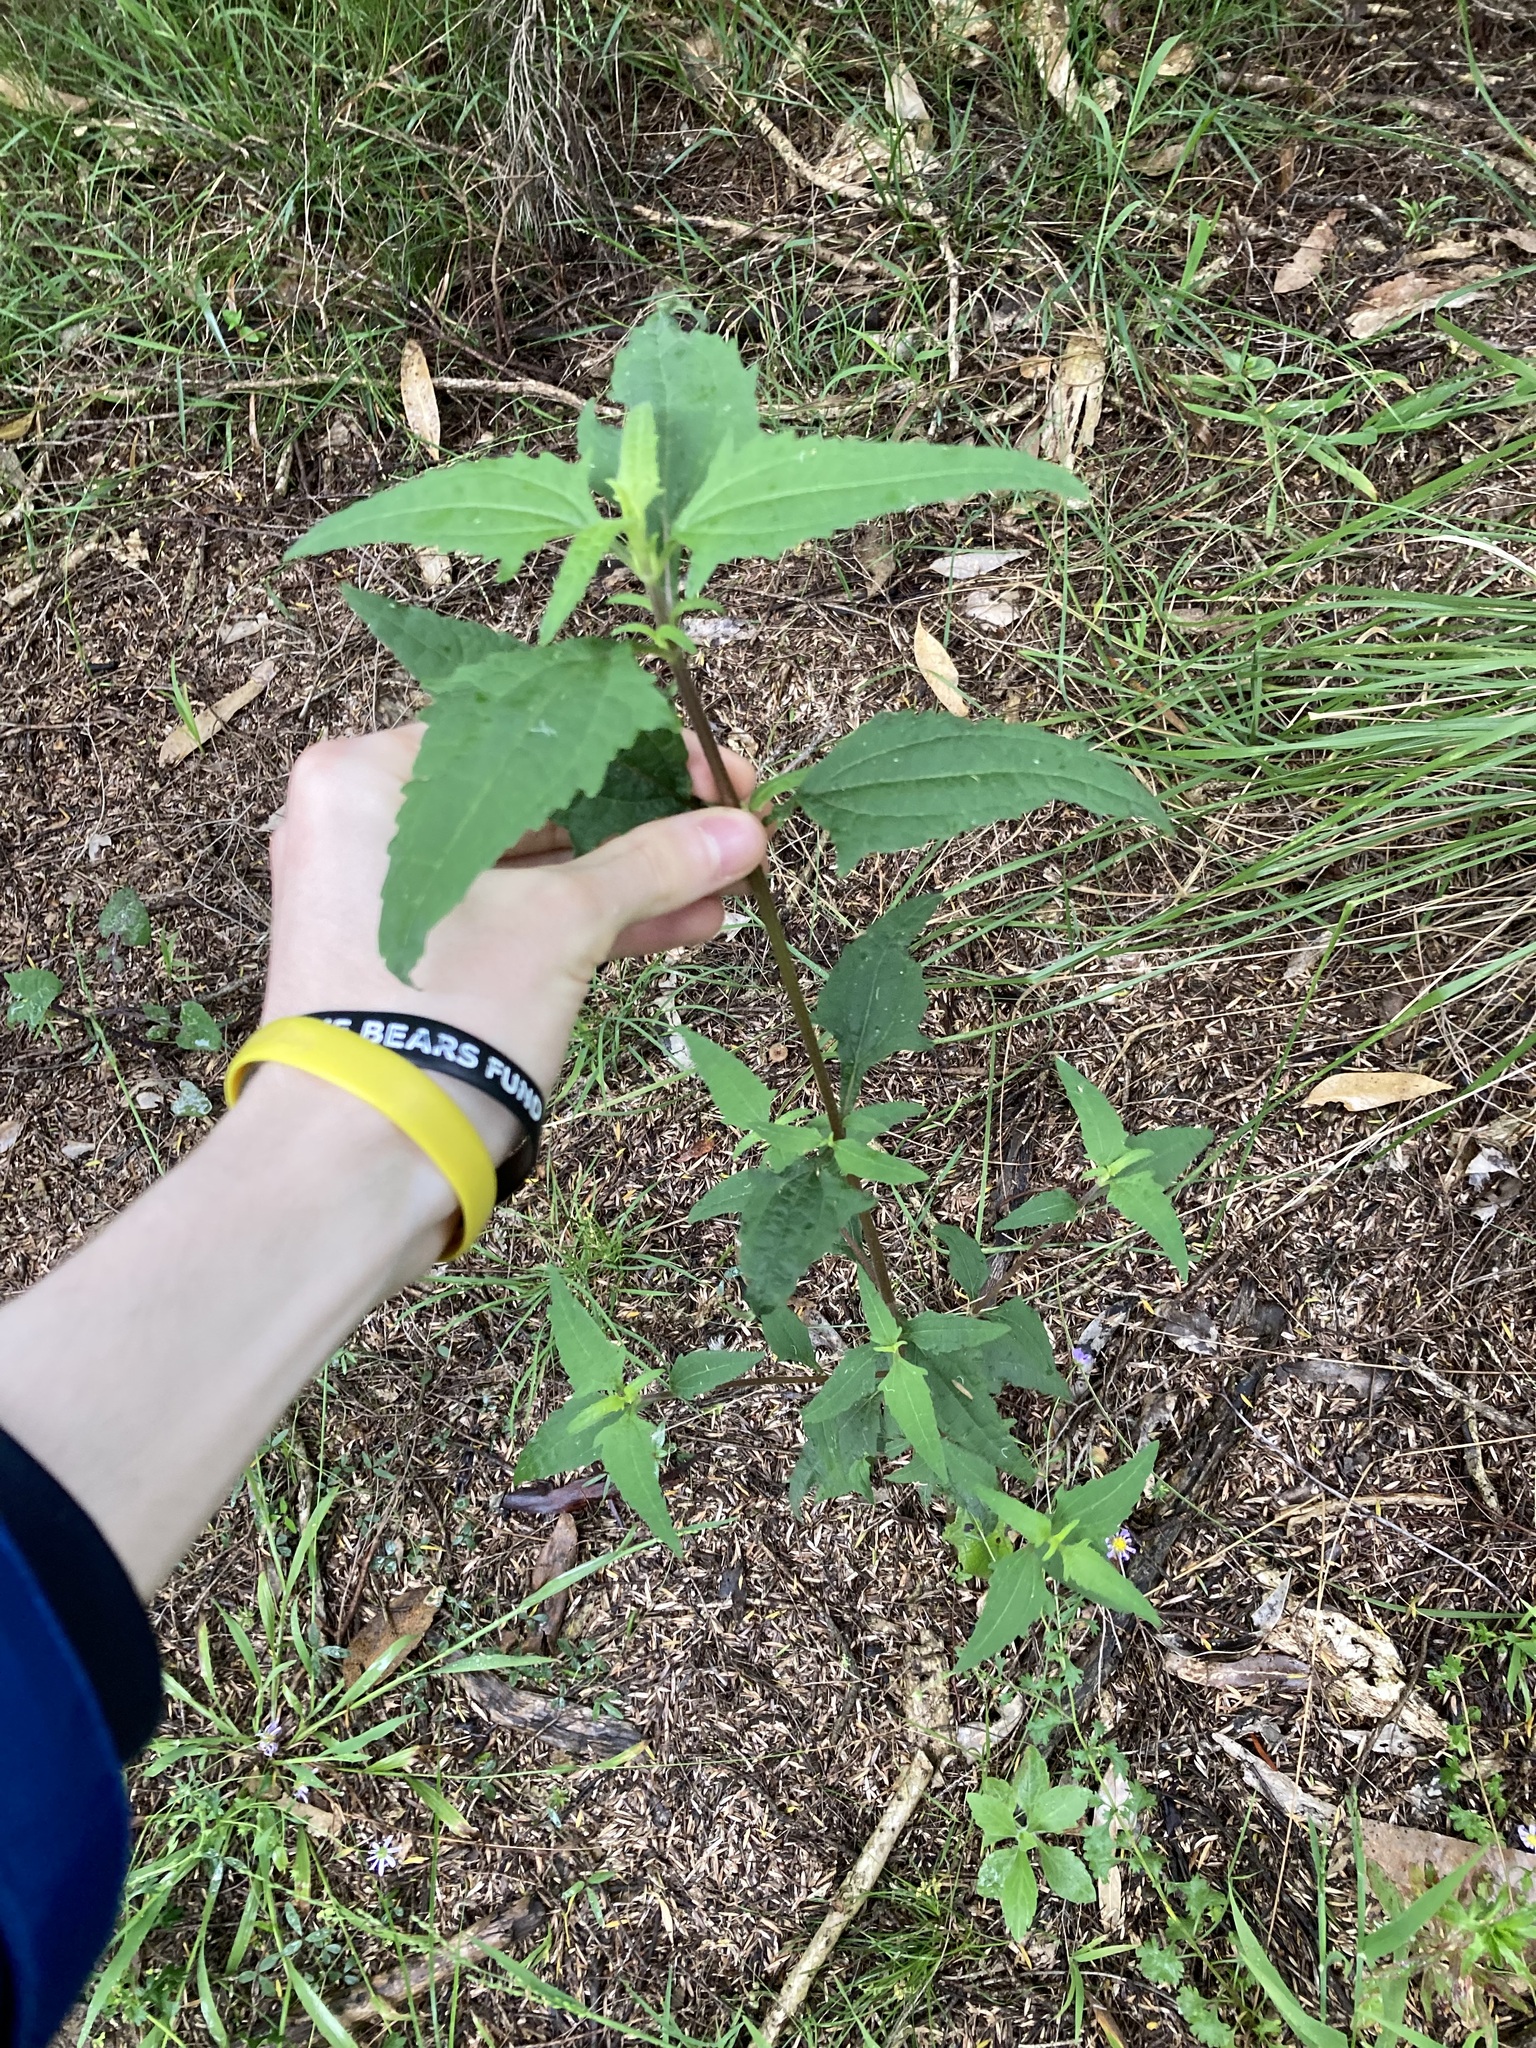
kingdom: Plantae
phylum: Tracheophyta
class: Magnoliopsida
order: Asterales
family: Asteraceae
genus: Sigesbeckia
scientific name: Sigesbeckia orientalis
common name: Eastern st paul's-wort
